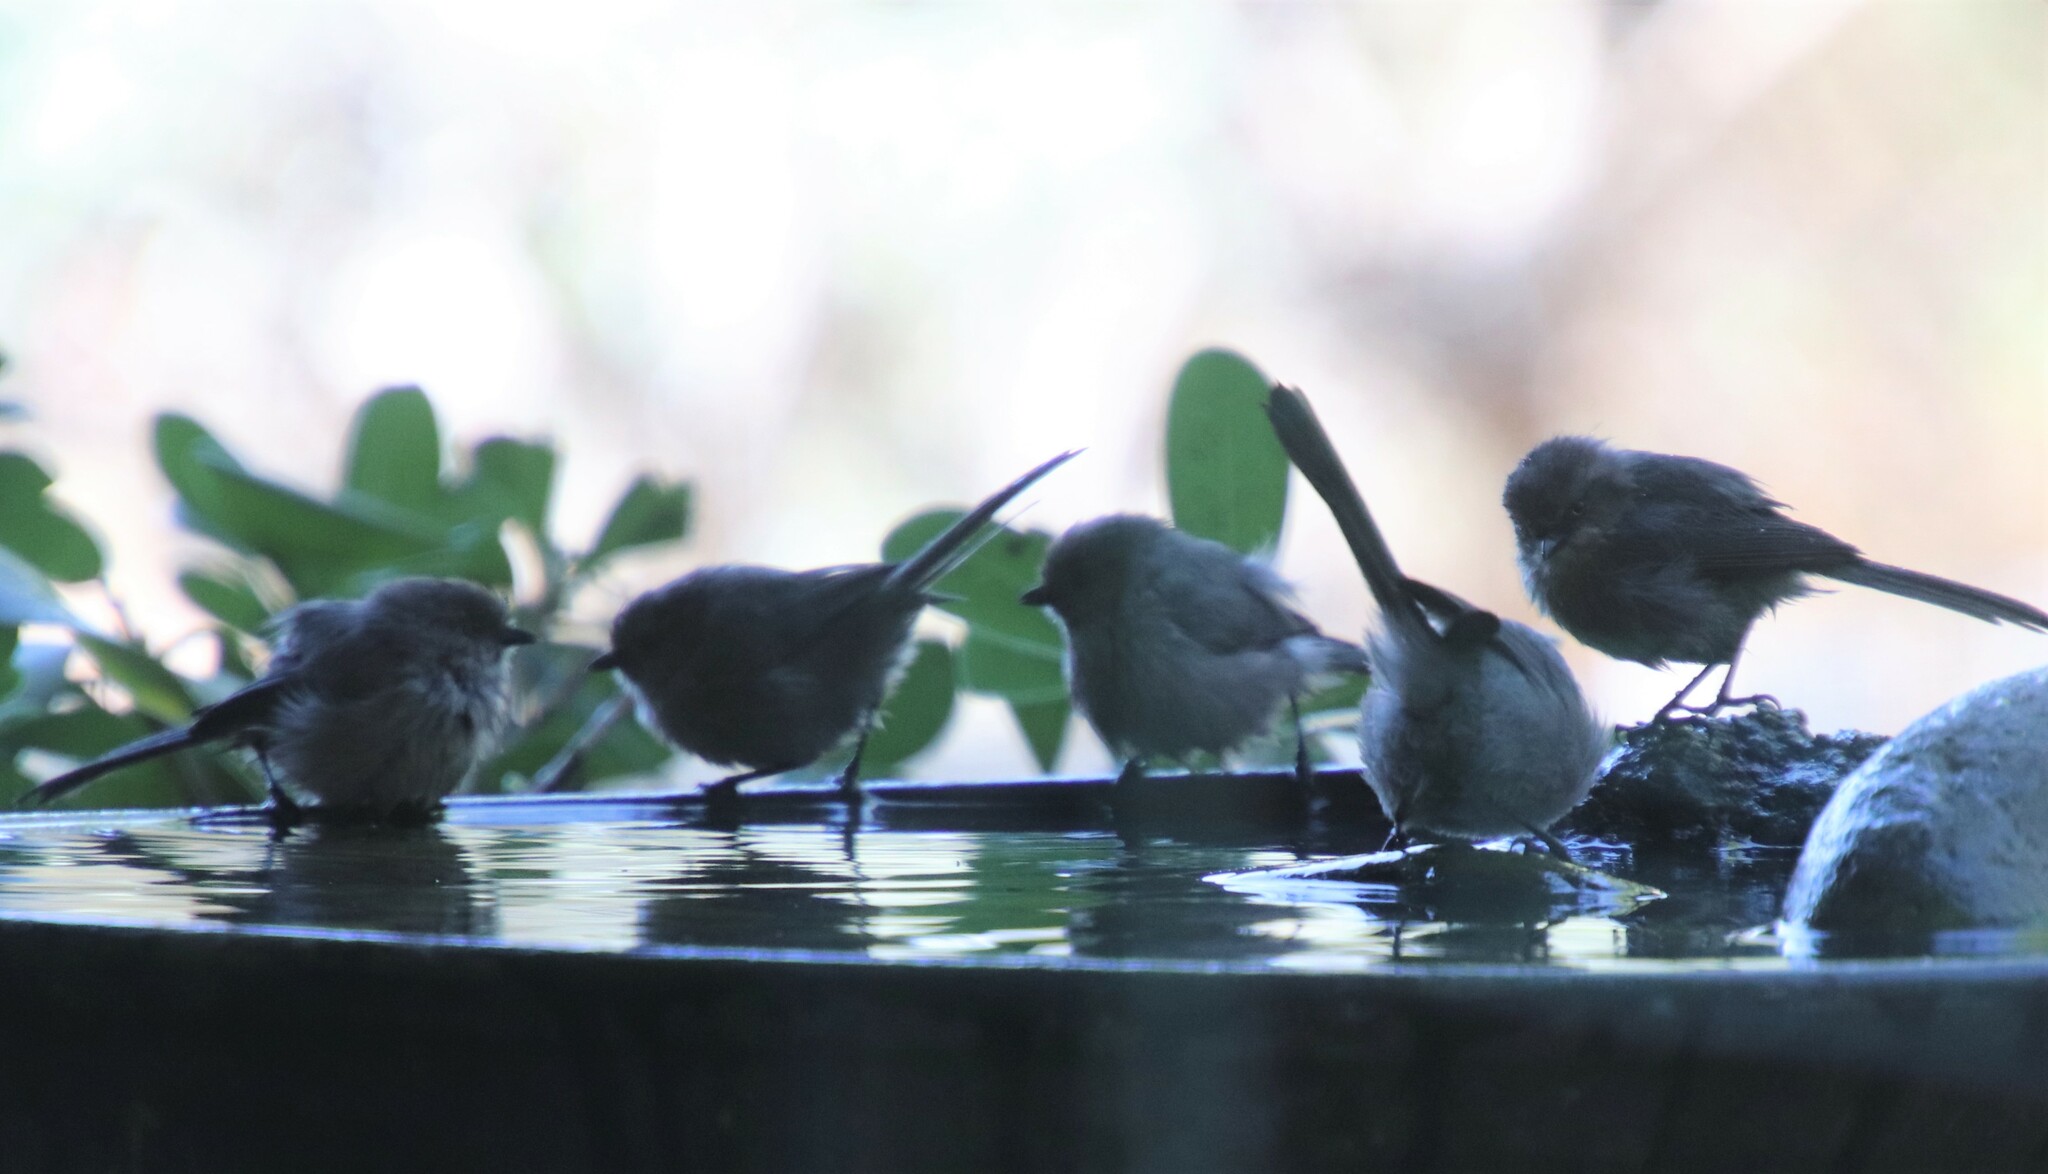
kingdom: Animalia
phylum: Chordata
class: Aves
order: Passeriformes
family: Aegithalidae
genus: Psaltriparus
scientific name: Psaltriparus minimus
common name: American bushtit
